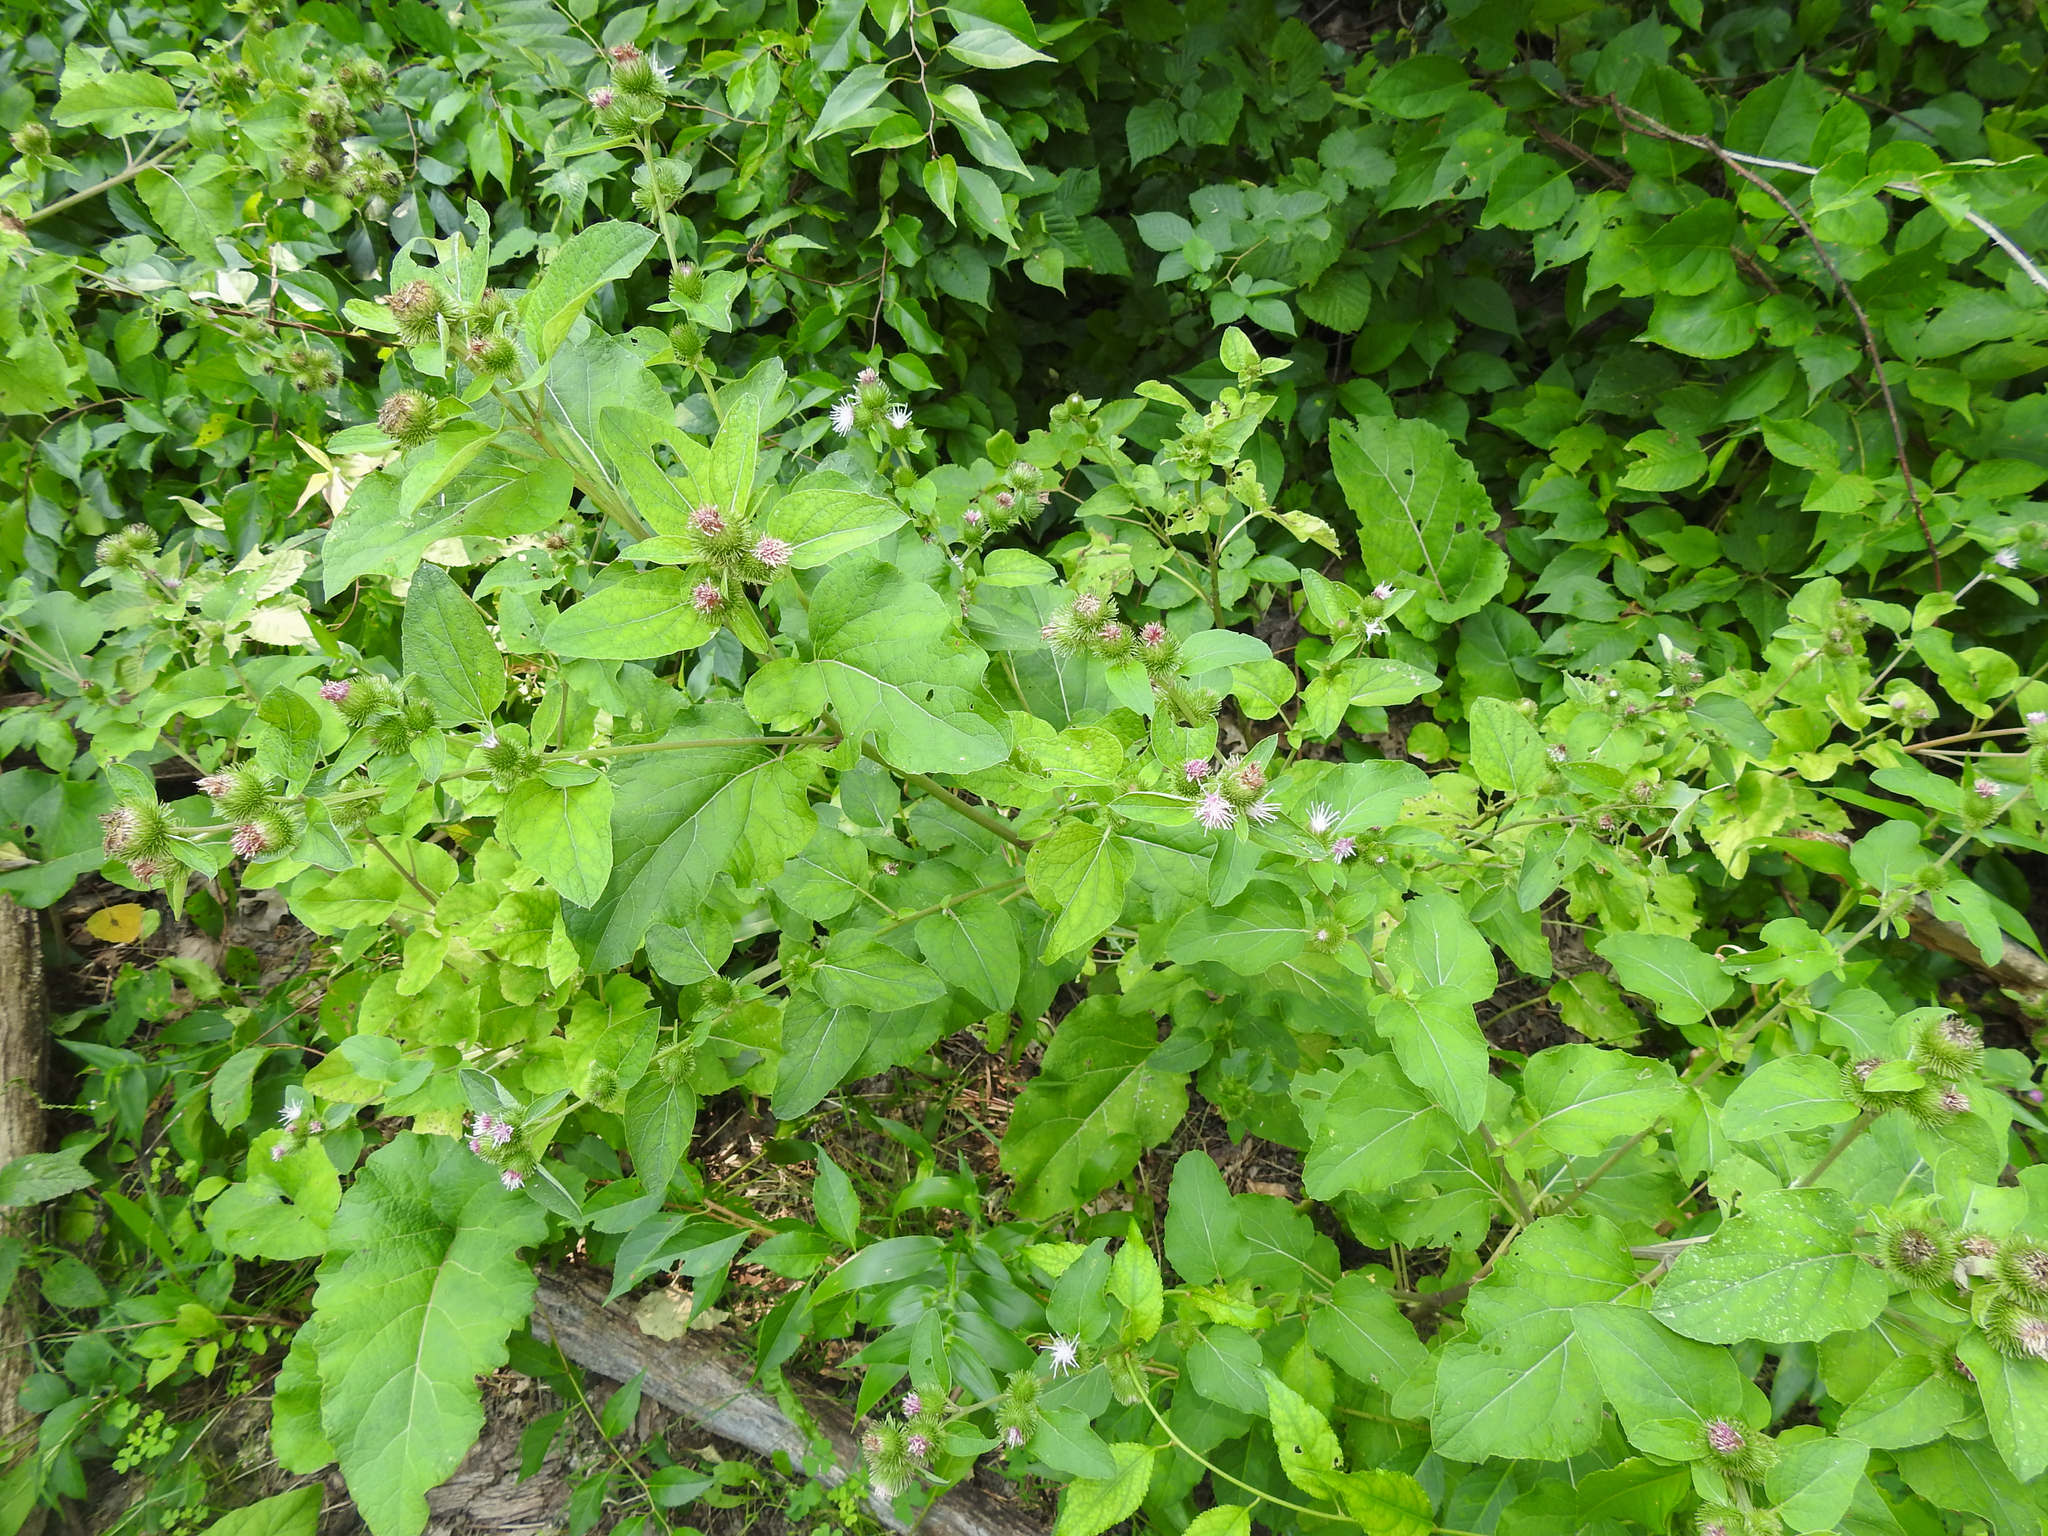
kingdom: Plantae
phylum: Tracheophyta
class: Magnoliopsida
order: Asterales
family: Asteraceae
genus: Arctium
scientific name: Arctium minus
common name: Lesser burdock
